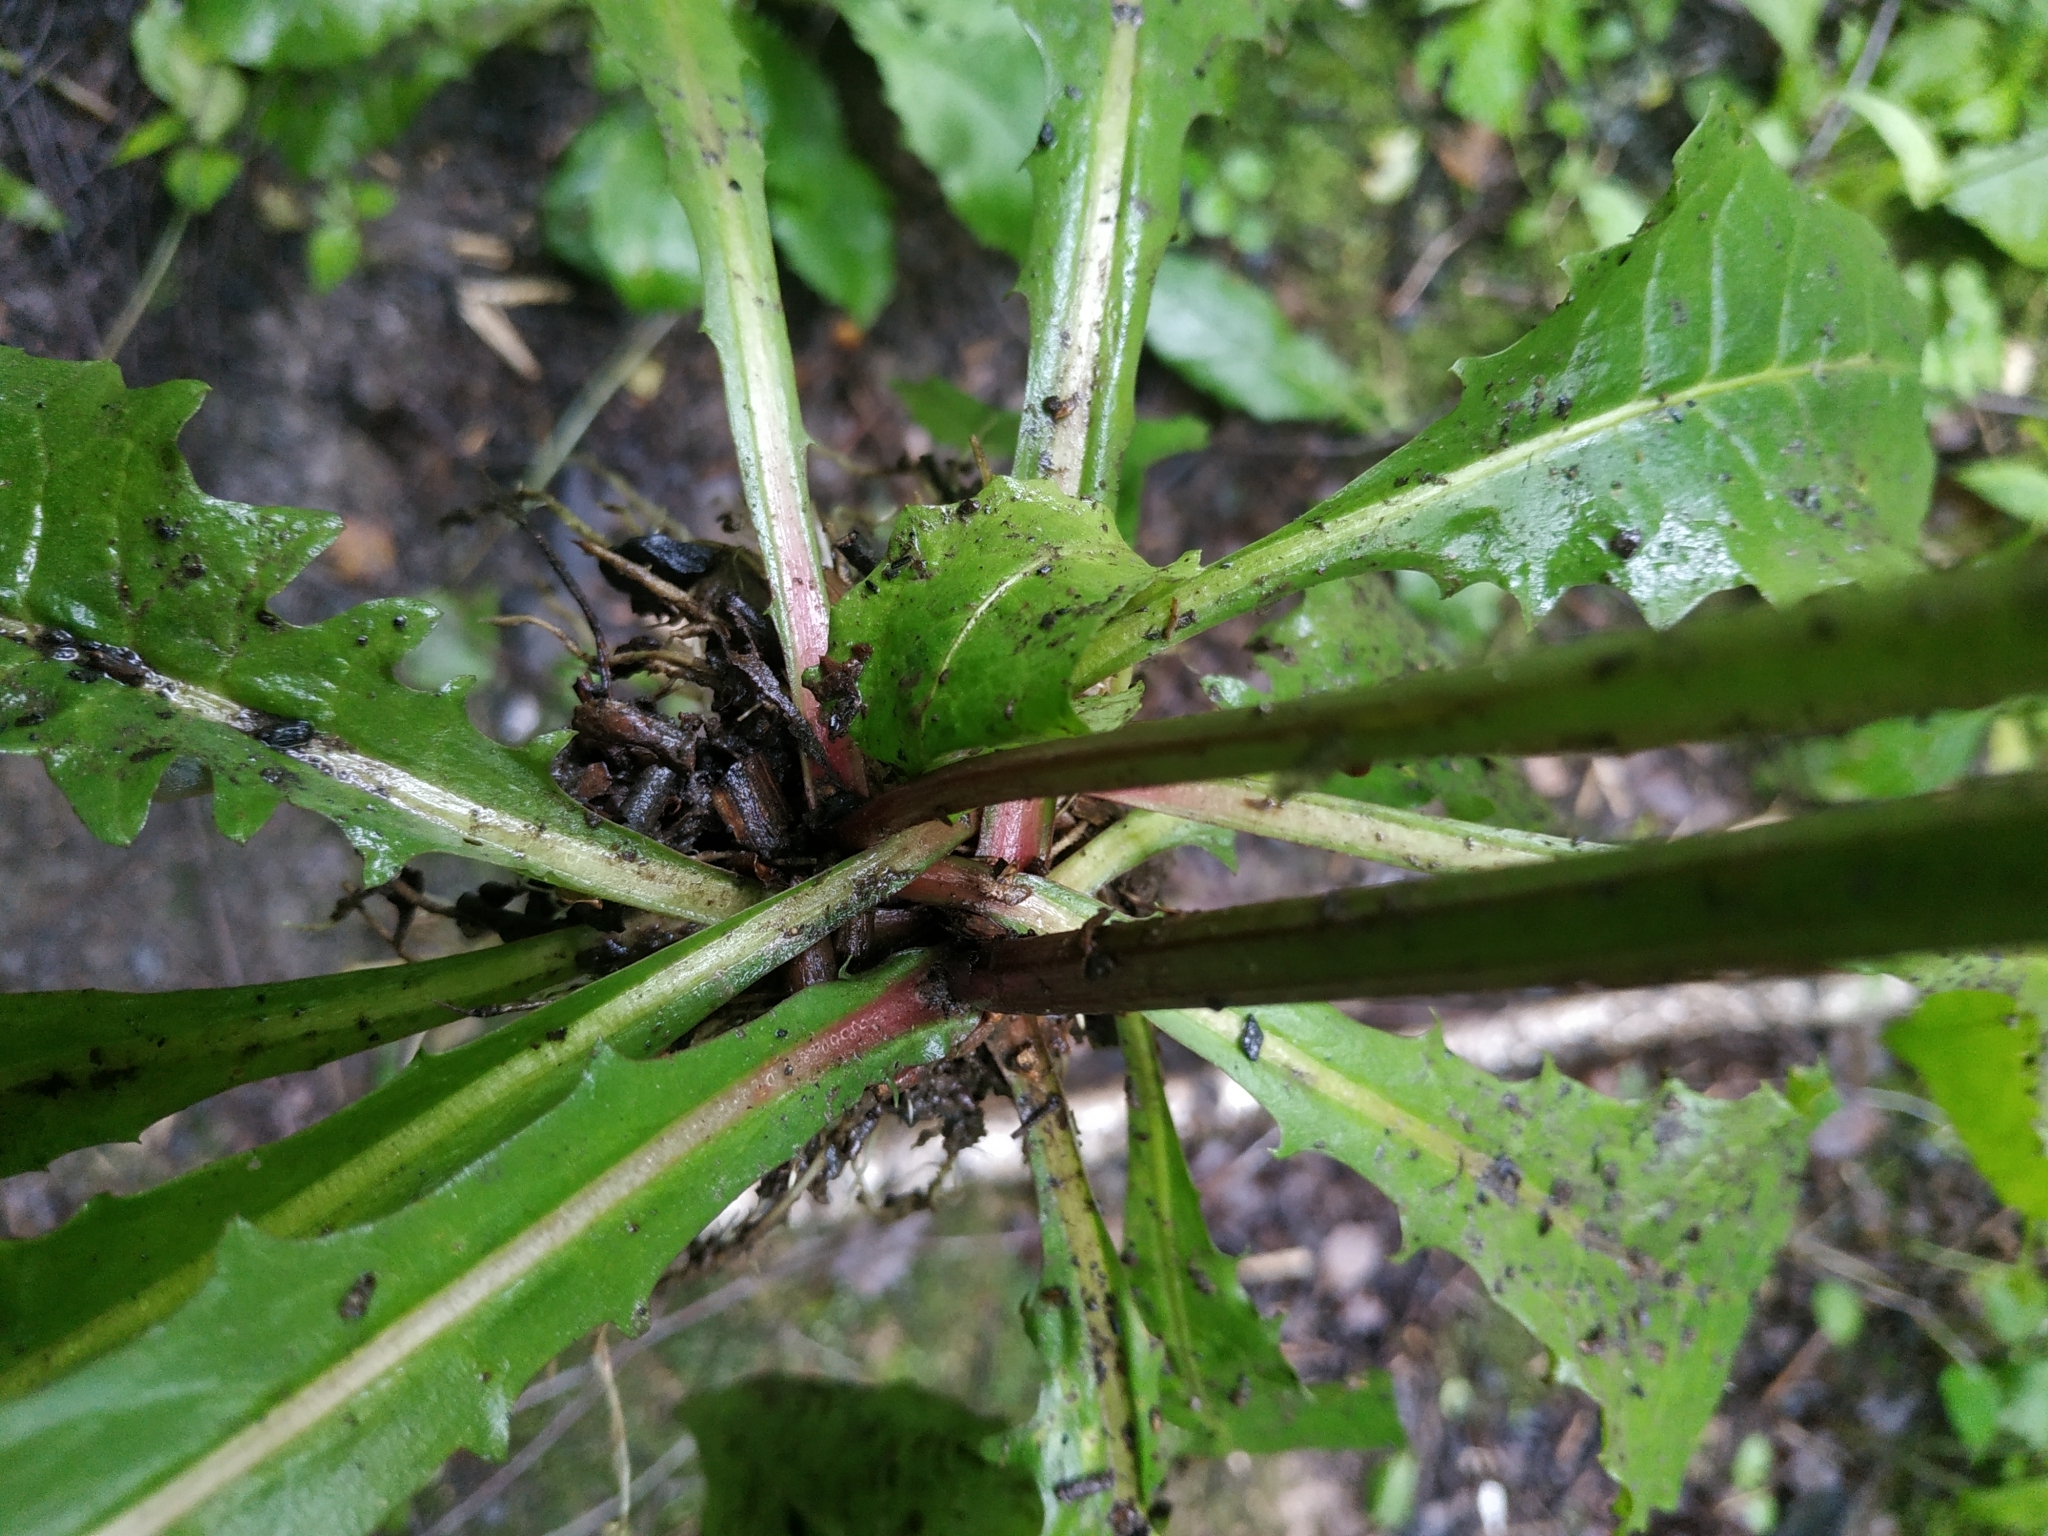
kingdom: Plantae
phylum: Tracheophyta
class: Magnoliopsida
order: Asterales
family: Asteraceae
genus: Crepis
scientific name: Crepis paludosa
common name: Marsh hawk's-beard
